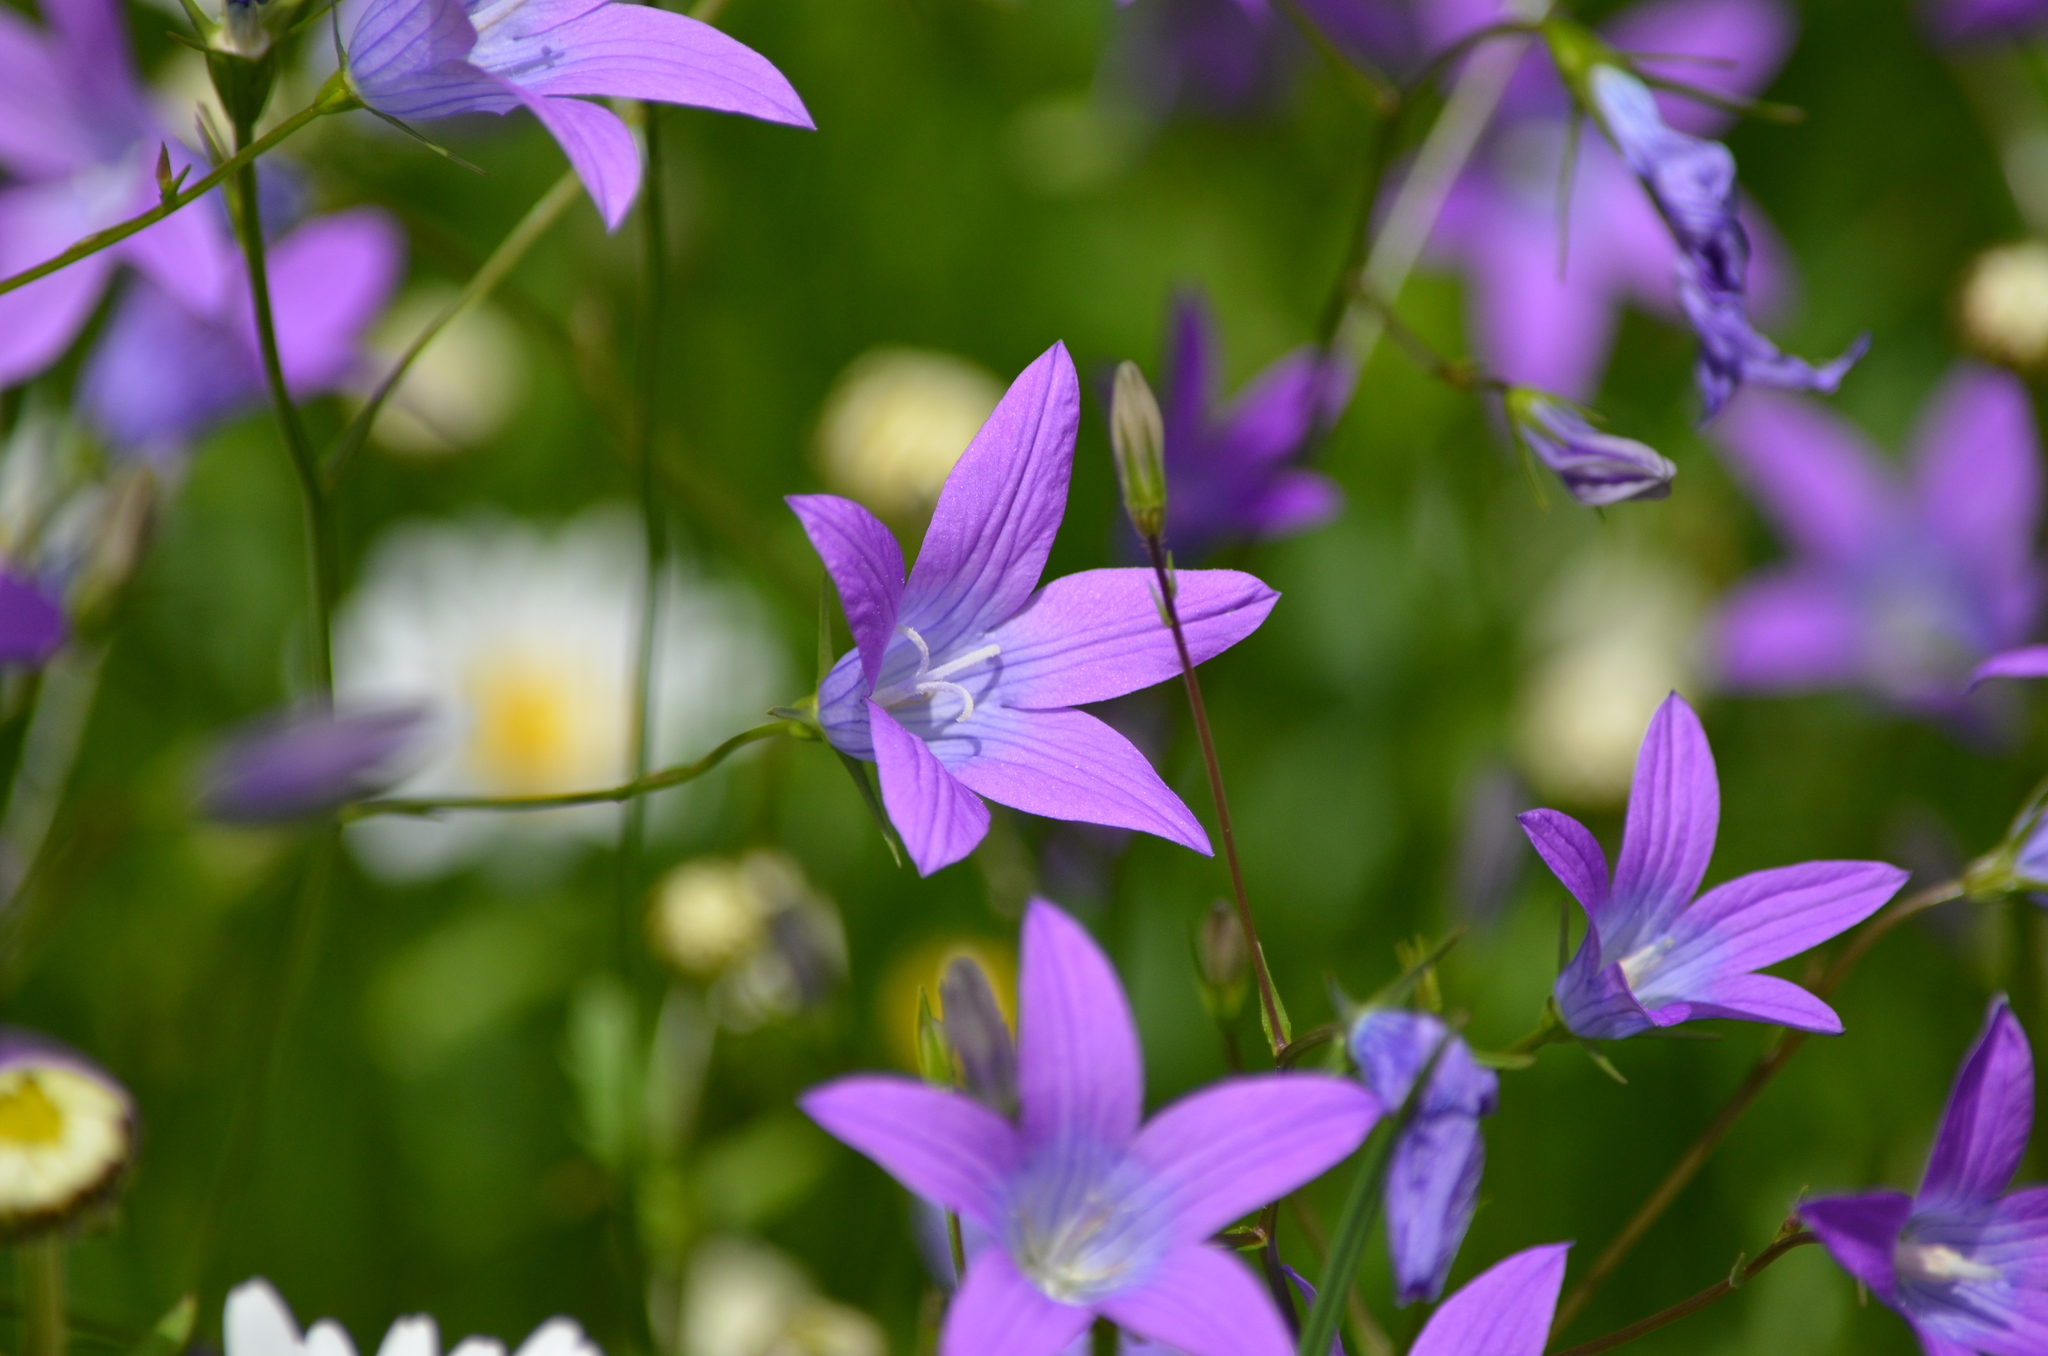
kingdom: Plantae
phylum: Tracheophyta
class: Magnoliopsida
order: Asterales
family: Campanulaceae
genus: Campanula
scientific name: Campanula patula
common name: Spreading bellflower
